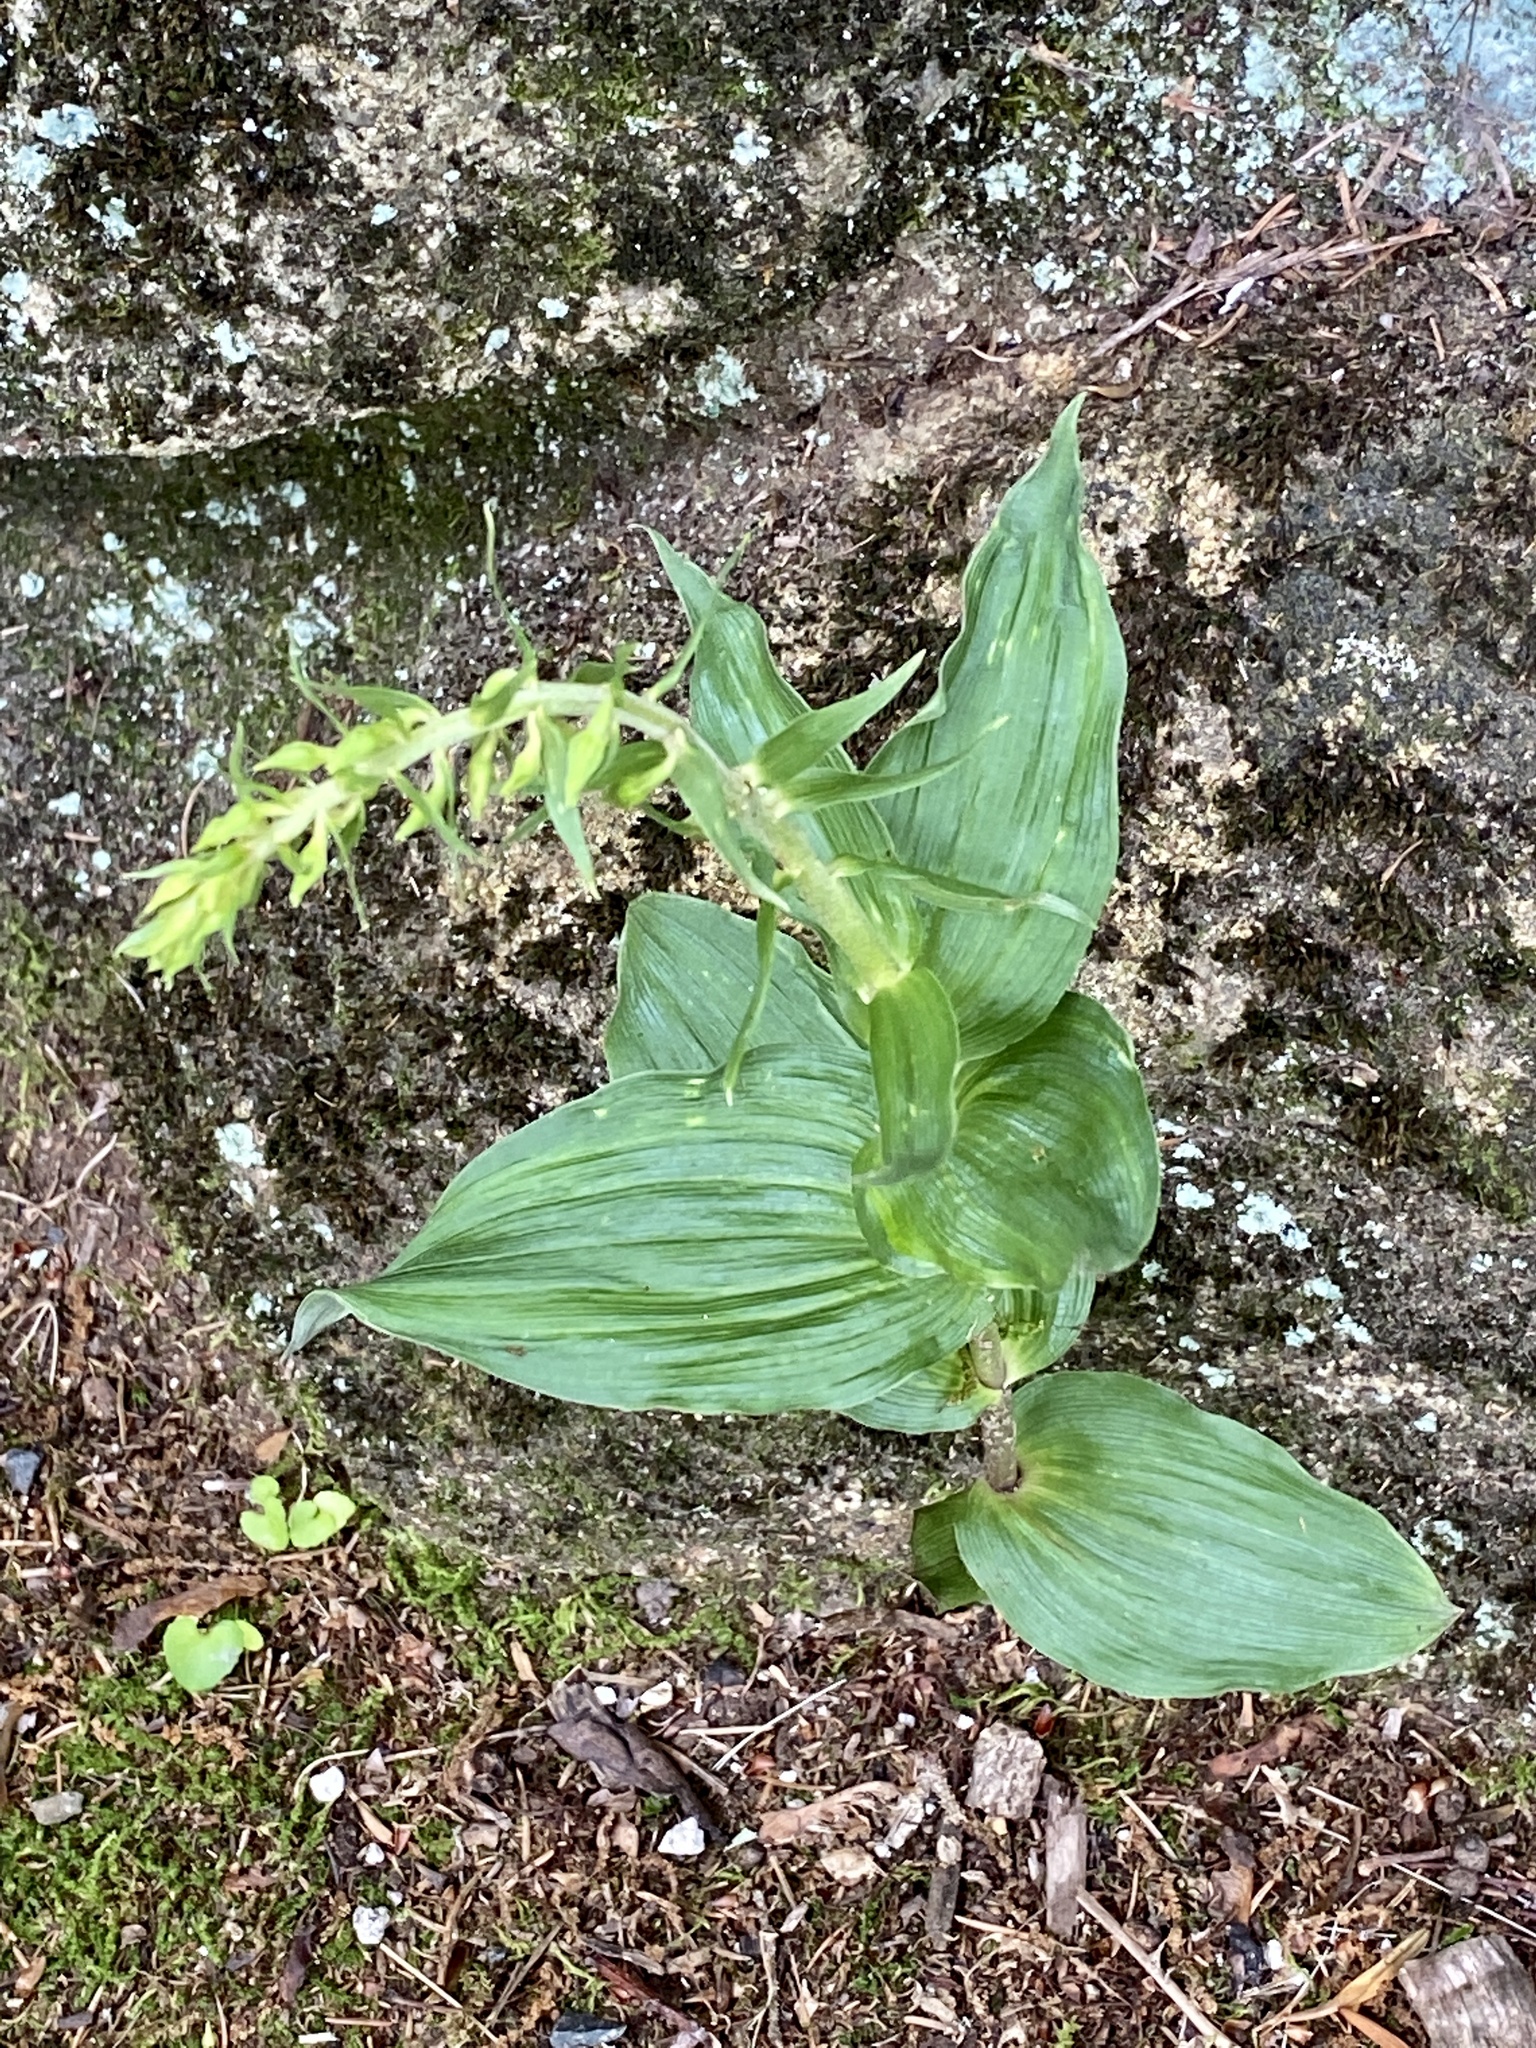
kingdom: Plantae
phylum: Tracheophyta
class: Liliopsida
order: Asparagales
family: Orchidaceae
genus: Epipactis
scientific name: Epipactis helleborine
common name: Broad-leaved helleborine
